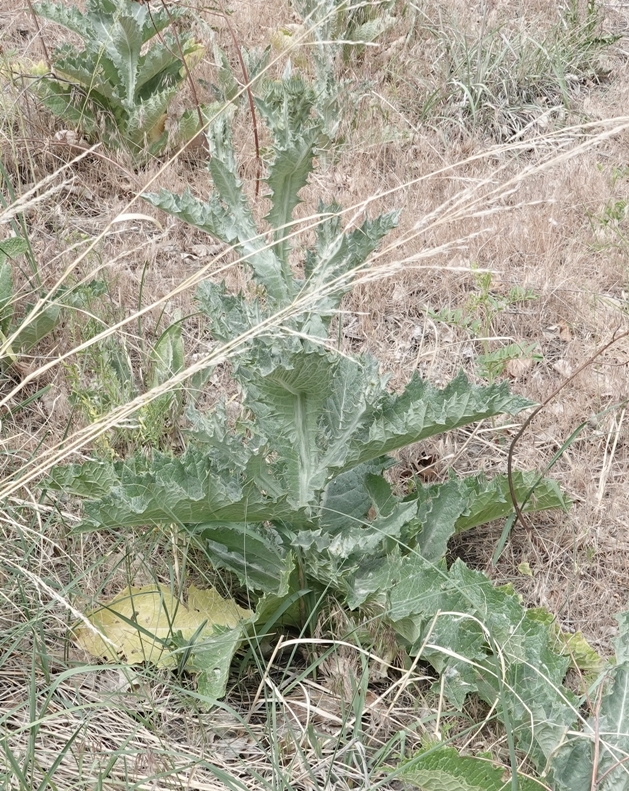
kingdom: Plantae
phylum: Tracheophyta
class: Magnoliopsida
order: Asterales
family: Asteraceae
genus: Onopordum
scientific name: Onopordum acanthium
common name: Scotch thistle
